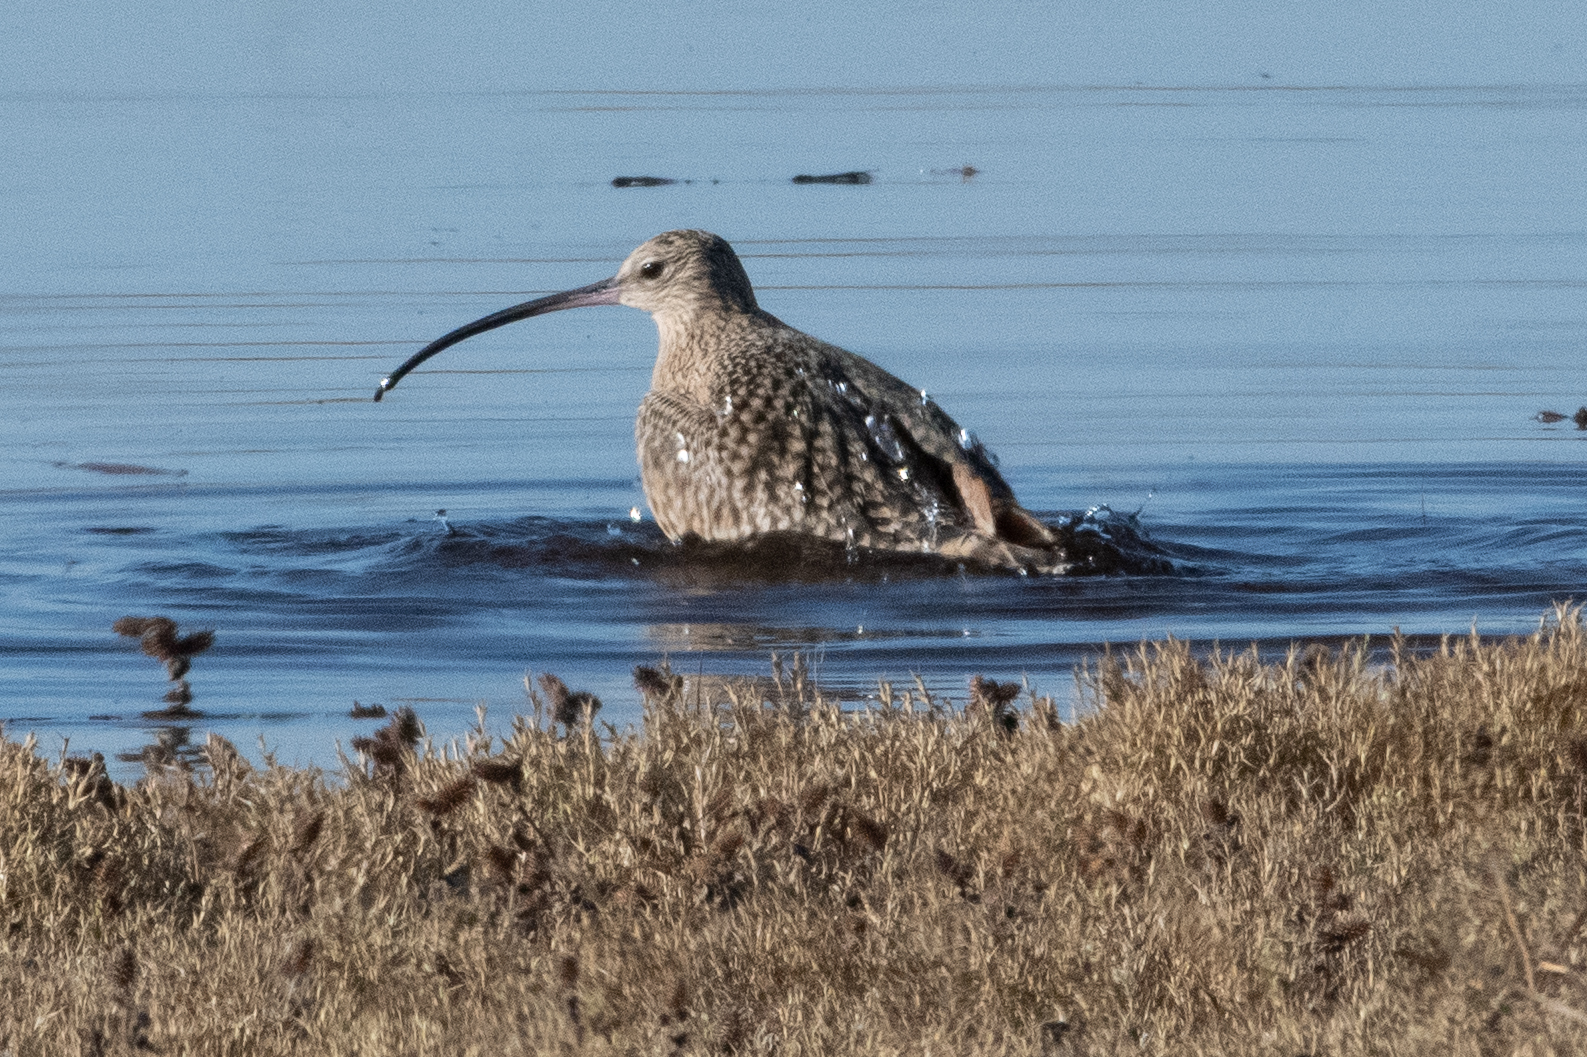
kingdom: Animalia
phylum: Chordata
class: Aves
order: Charadriiformes
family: Scolopacidae
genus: Numenius
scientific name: Numenius americanus
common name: Long-billed curlew
